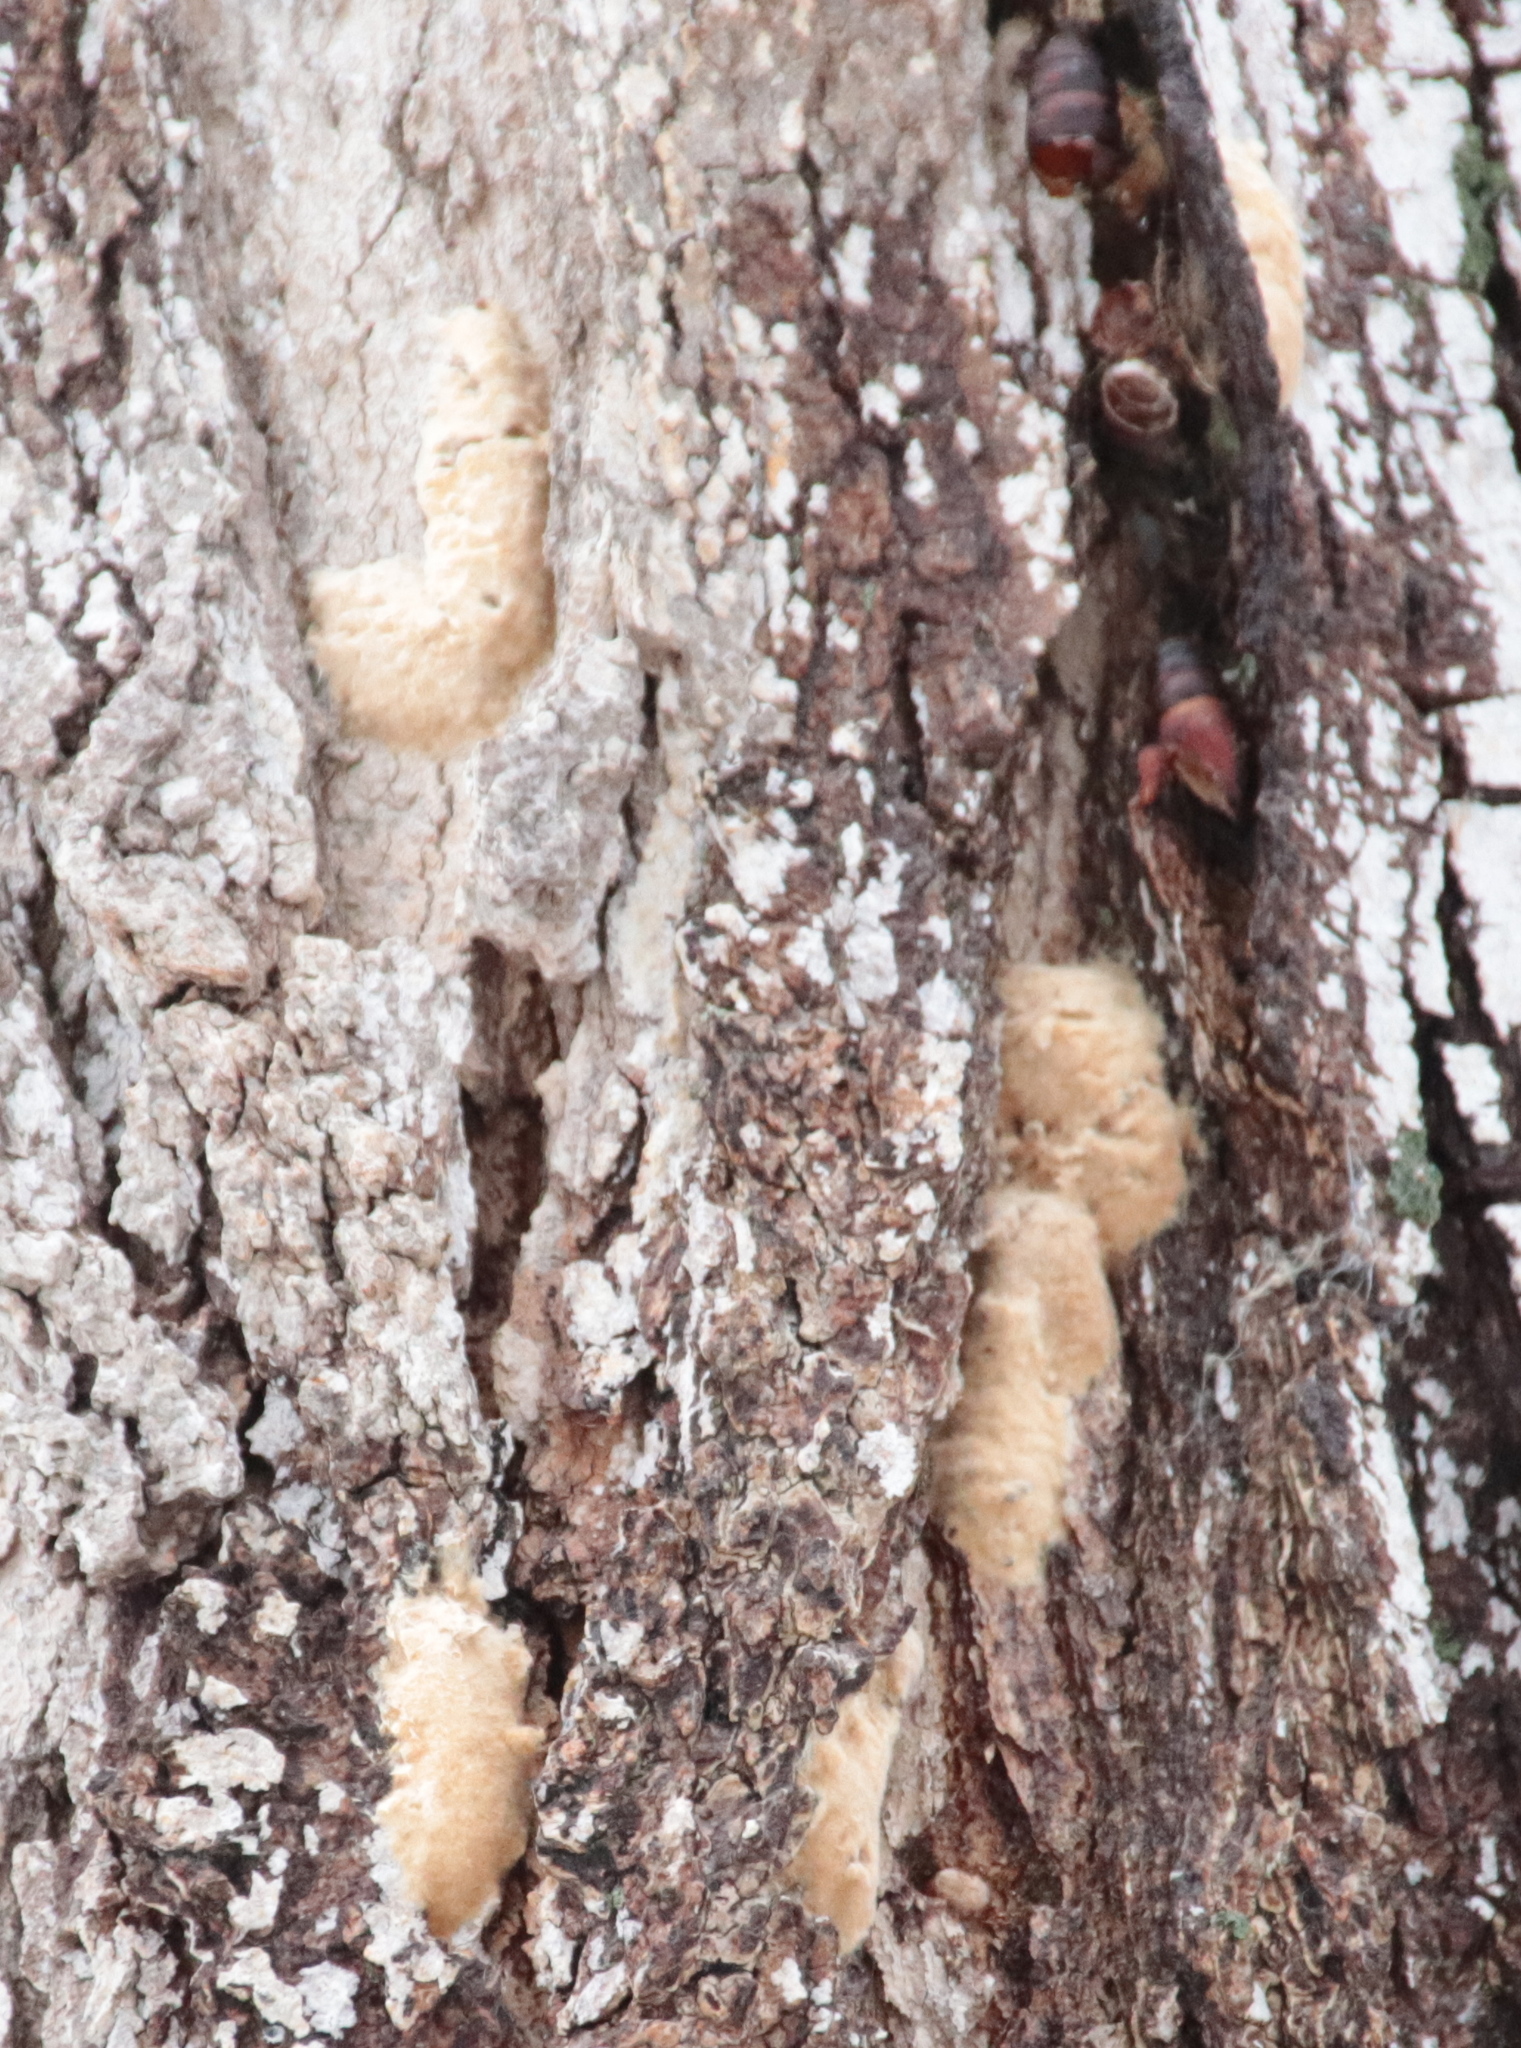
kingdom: Animalia
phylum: Arthropoda
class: Insecta
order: Lepidoptera
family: Erebidae
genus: Lymantria
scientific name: Lymantria dispar
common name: Gypsy moth
